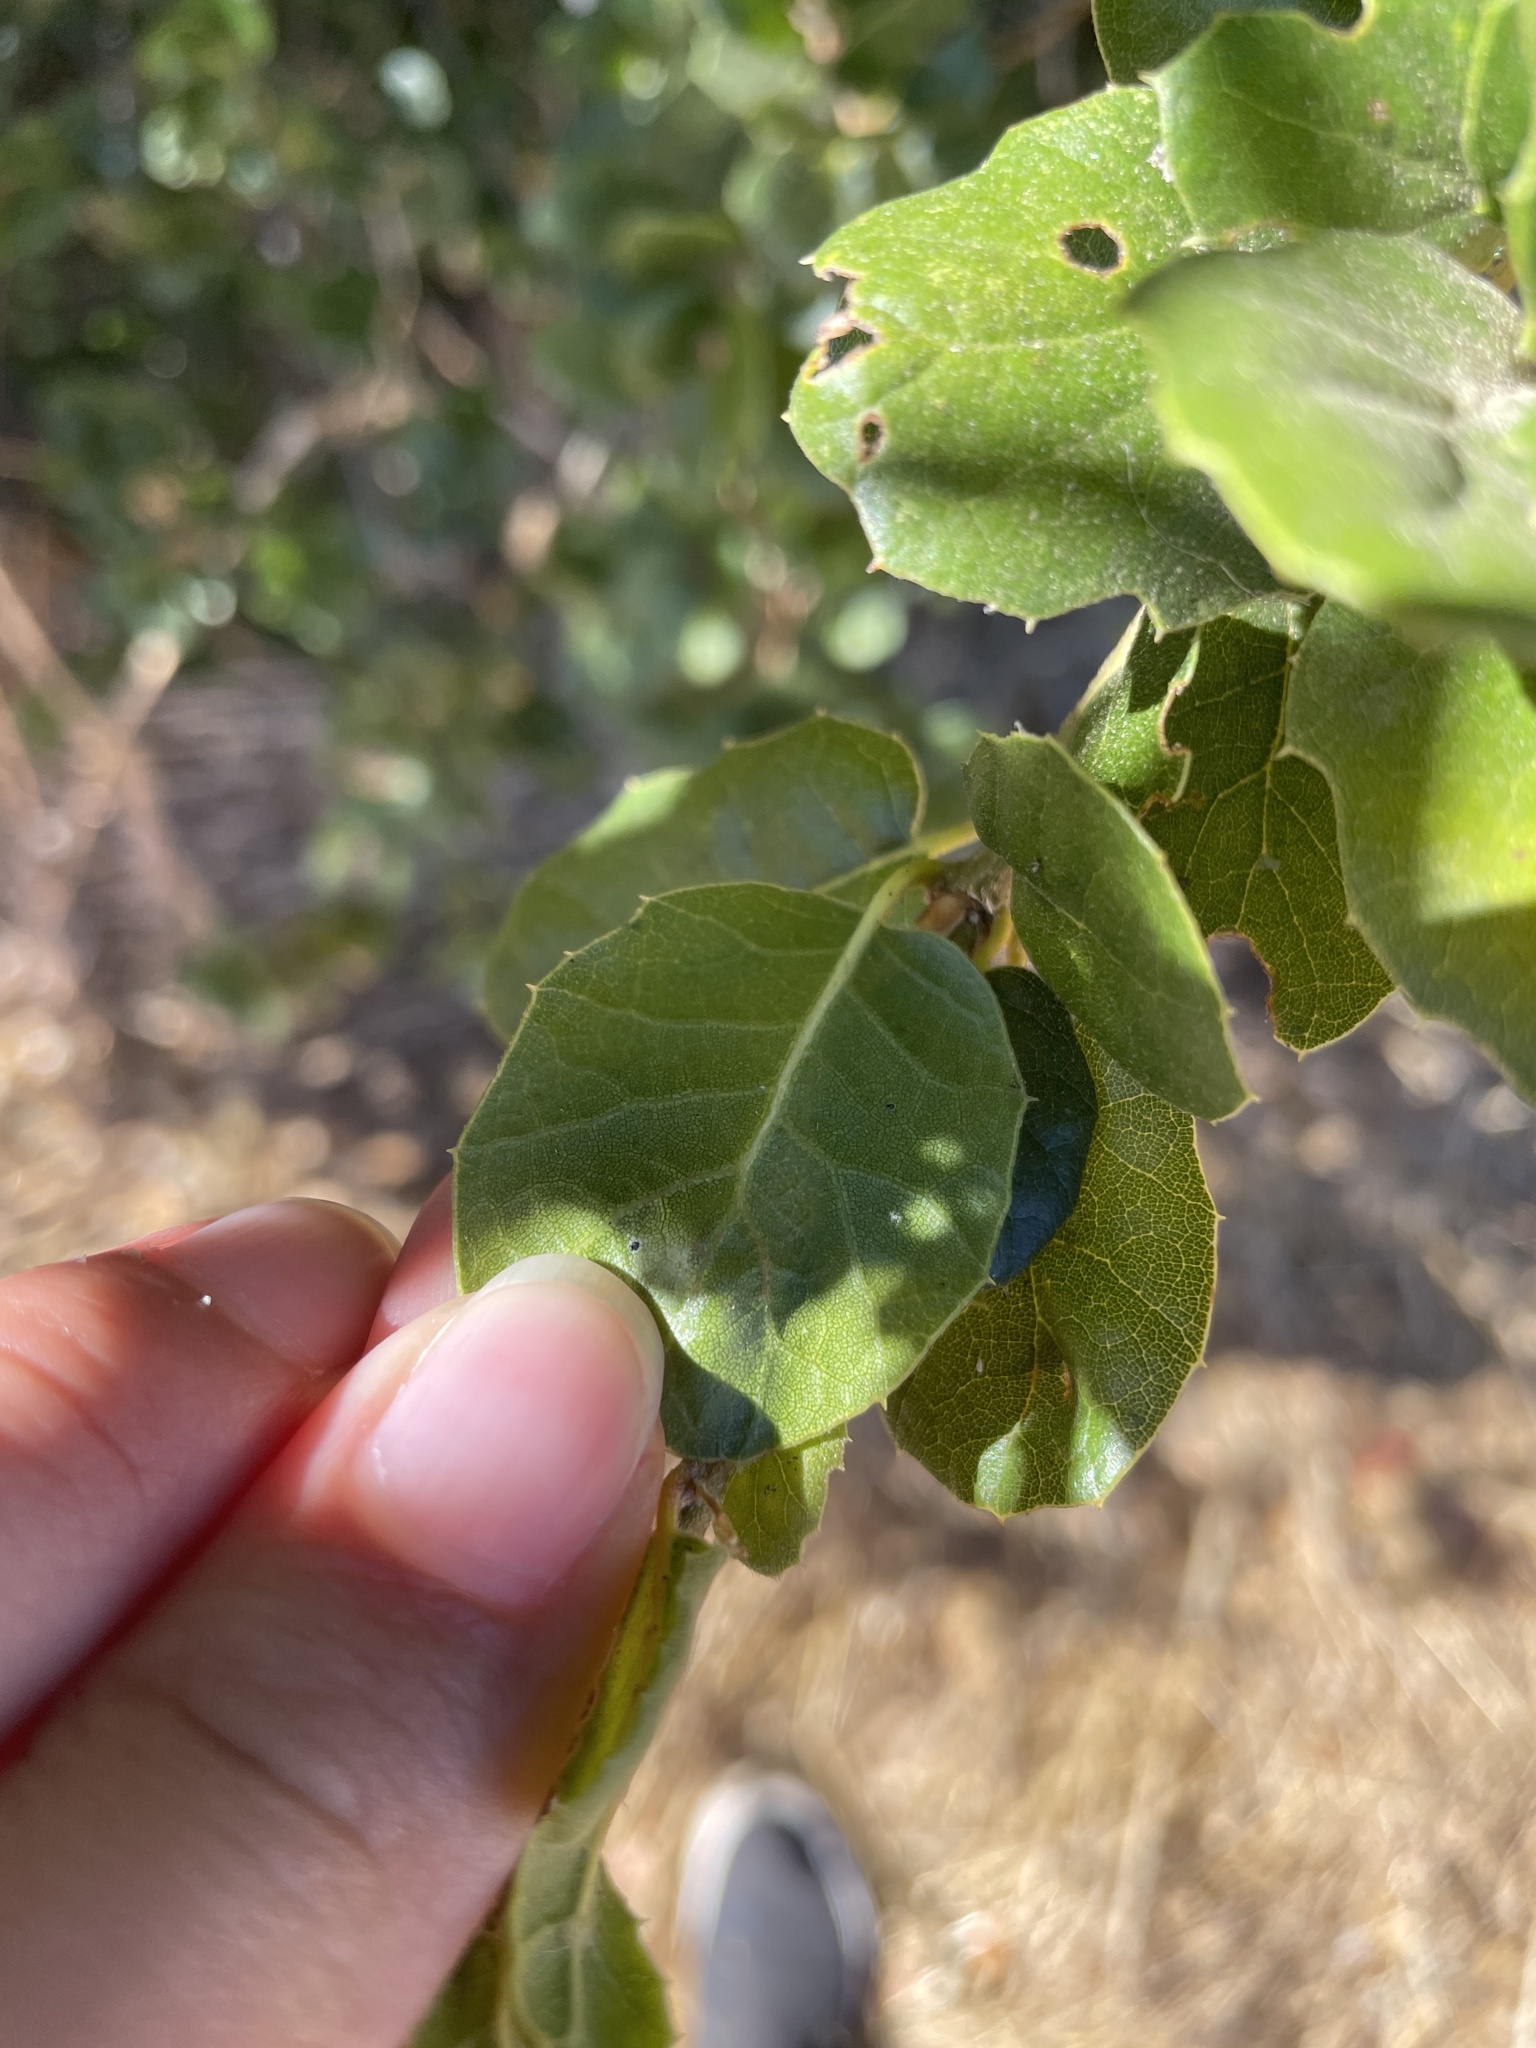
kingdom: Plantae
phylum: Tracheophyta
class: Magnoliopsida
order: Fagales
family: Fagaceae
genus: Quercus
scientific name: Quercus agrifolia
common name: California live oak
